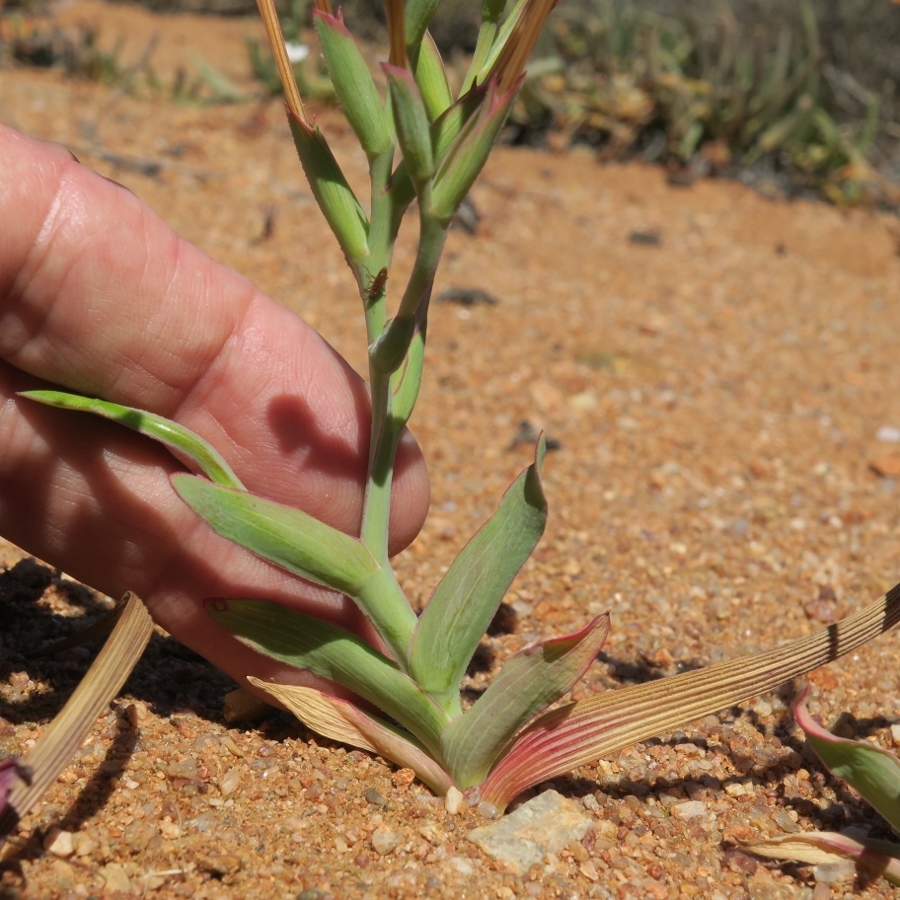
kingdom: Plantae
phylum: Tracheophyta
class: Liliopsida
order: Asparagales
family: Iridaceae
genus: Lapeirousia
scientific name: Lapeirousia fabricii
